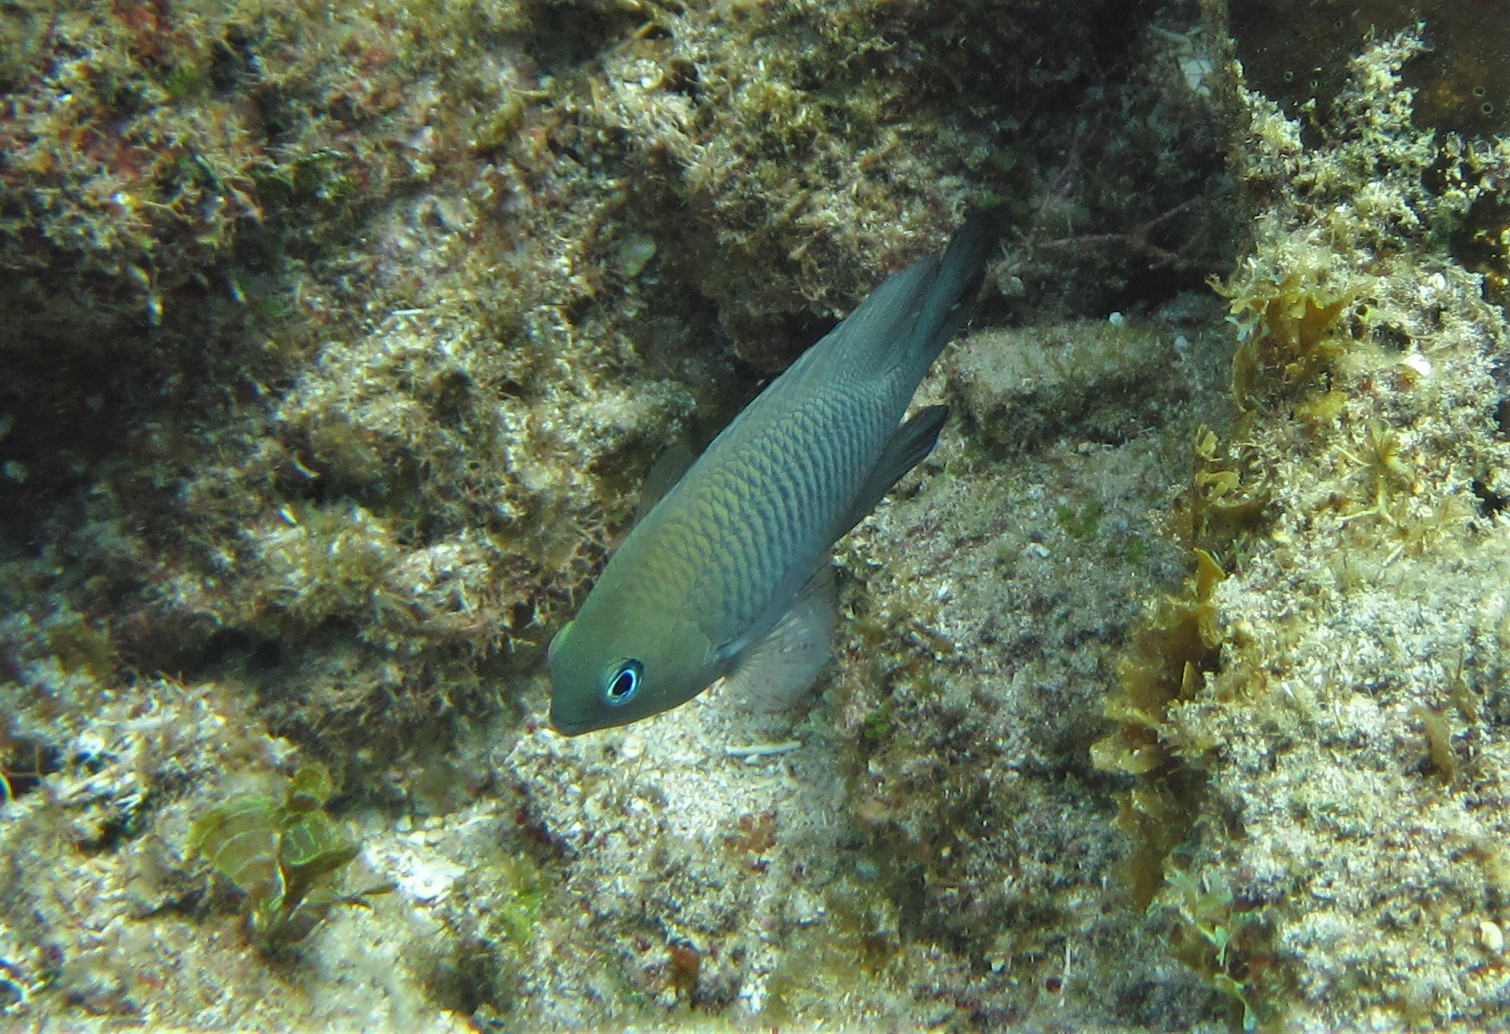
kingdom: Animalia
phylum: Chordata
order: Perciformes
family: Pomacentridae
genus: Stegastes
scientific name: Stegastes adustus
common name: Dusky damselfish
